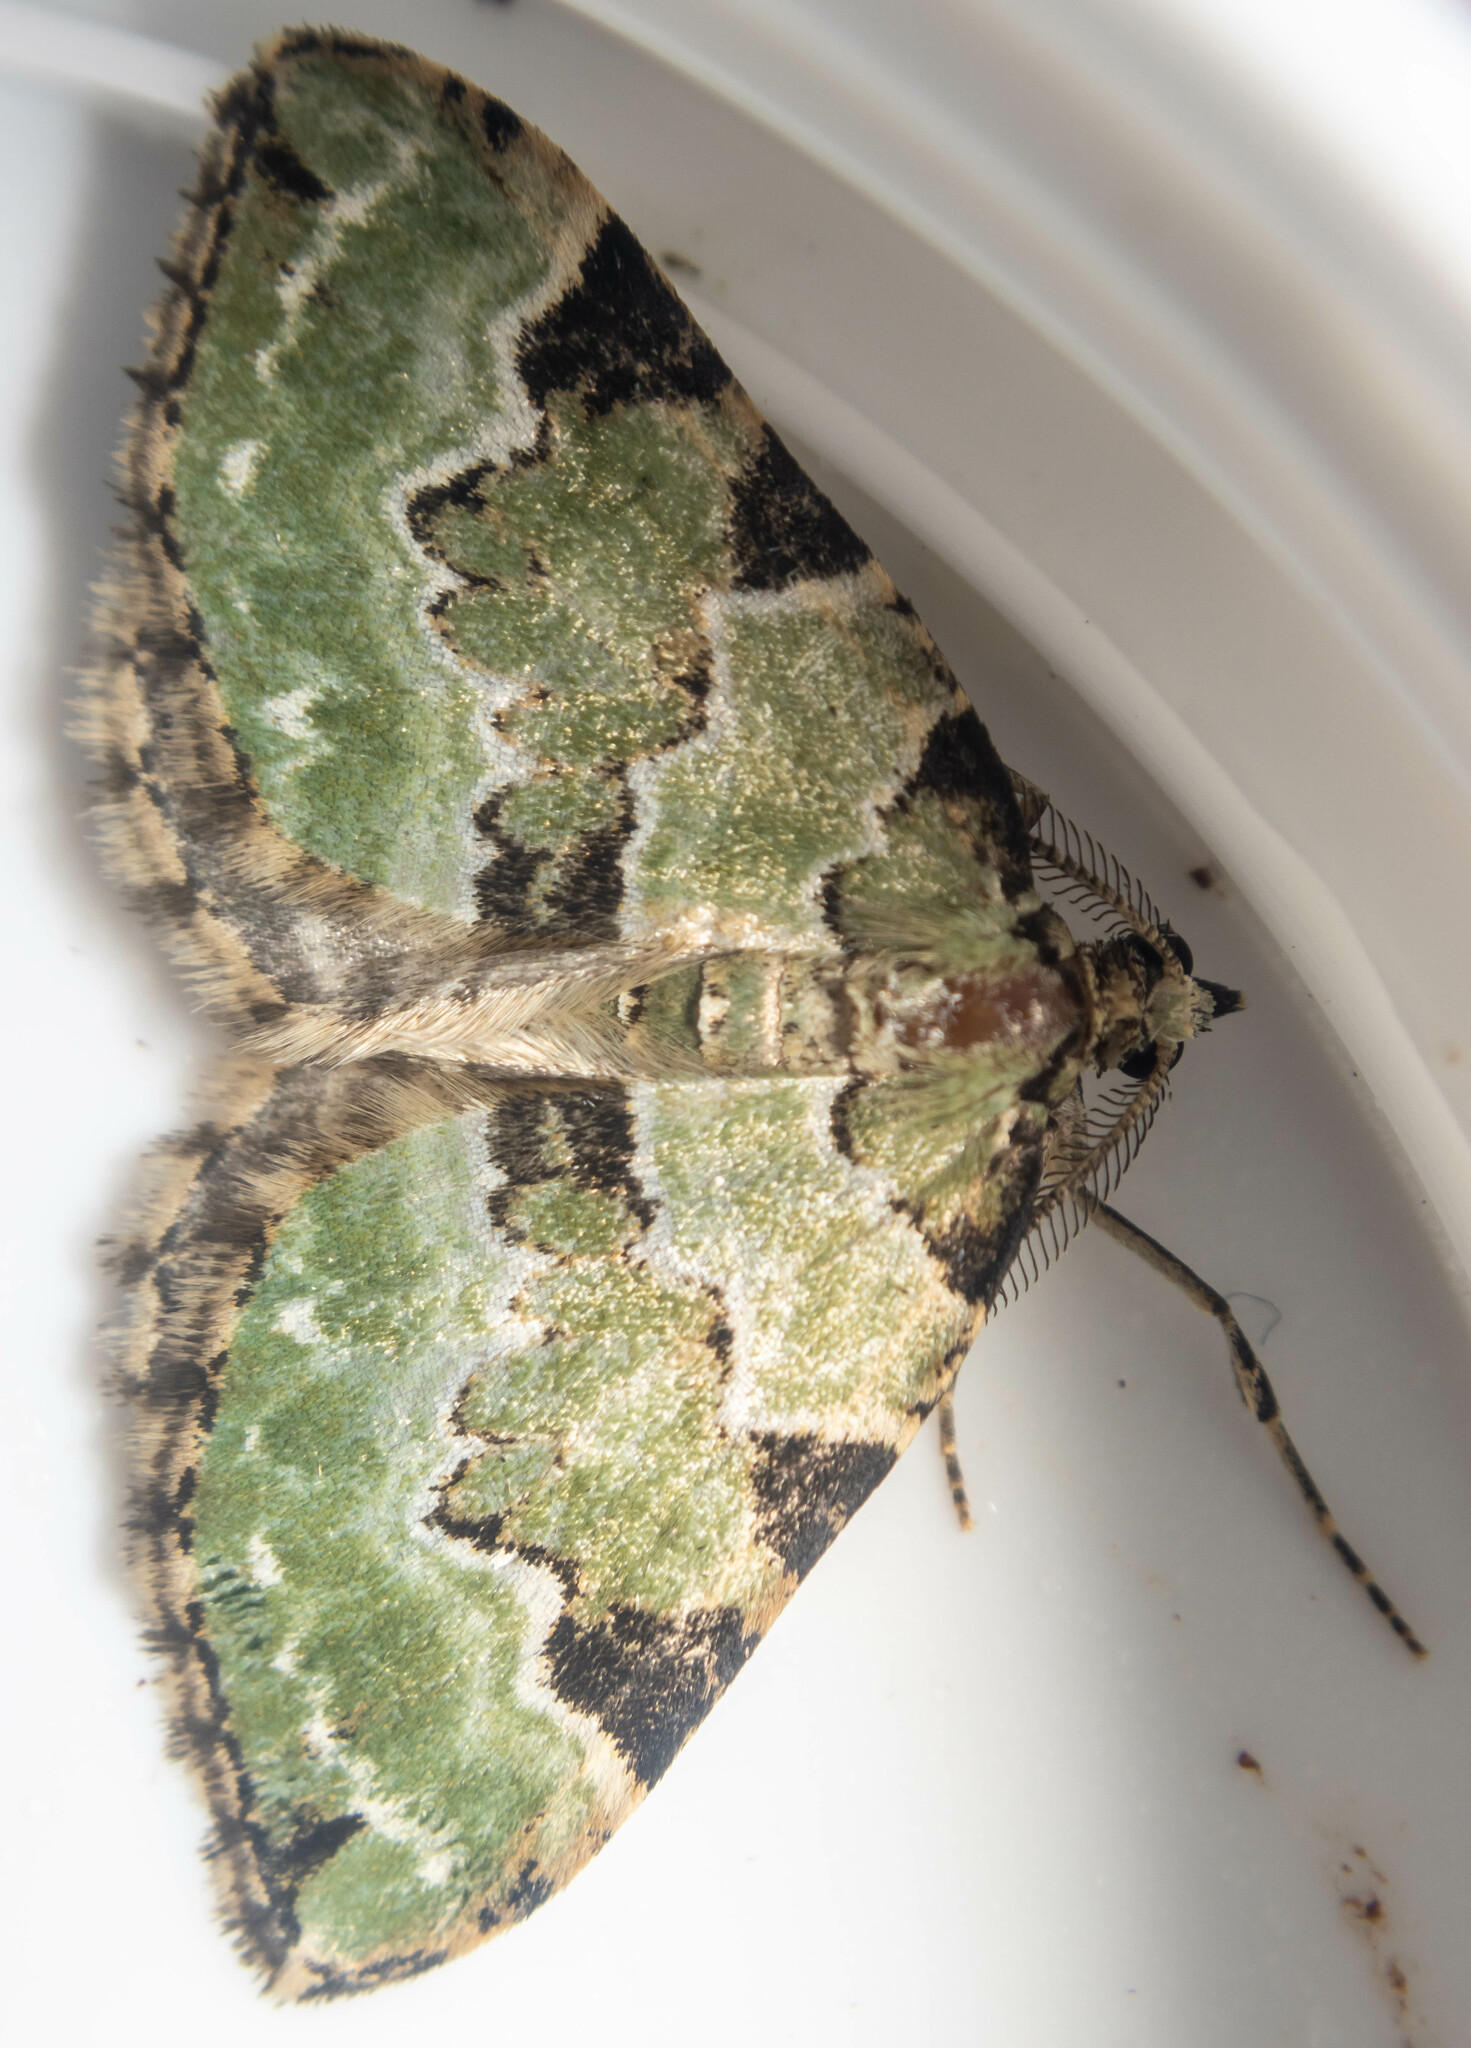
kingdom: Animalia
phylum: Arthropoda
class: Insecta
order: Lepidoptera
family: Geometridae
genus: Colostygia
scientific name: Colostygia pectinataria
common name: Green carpet
